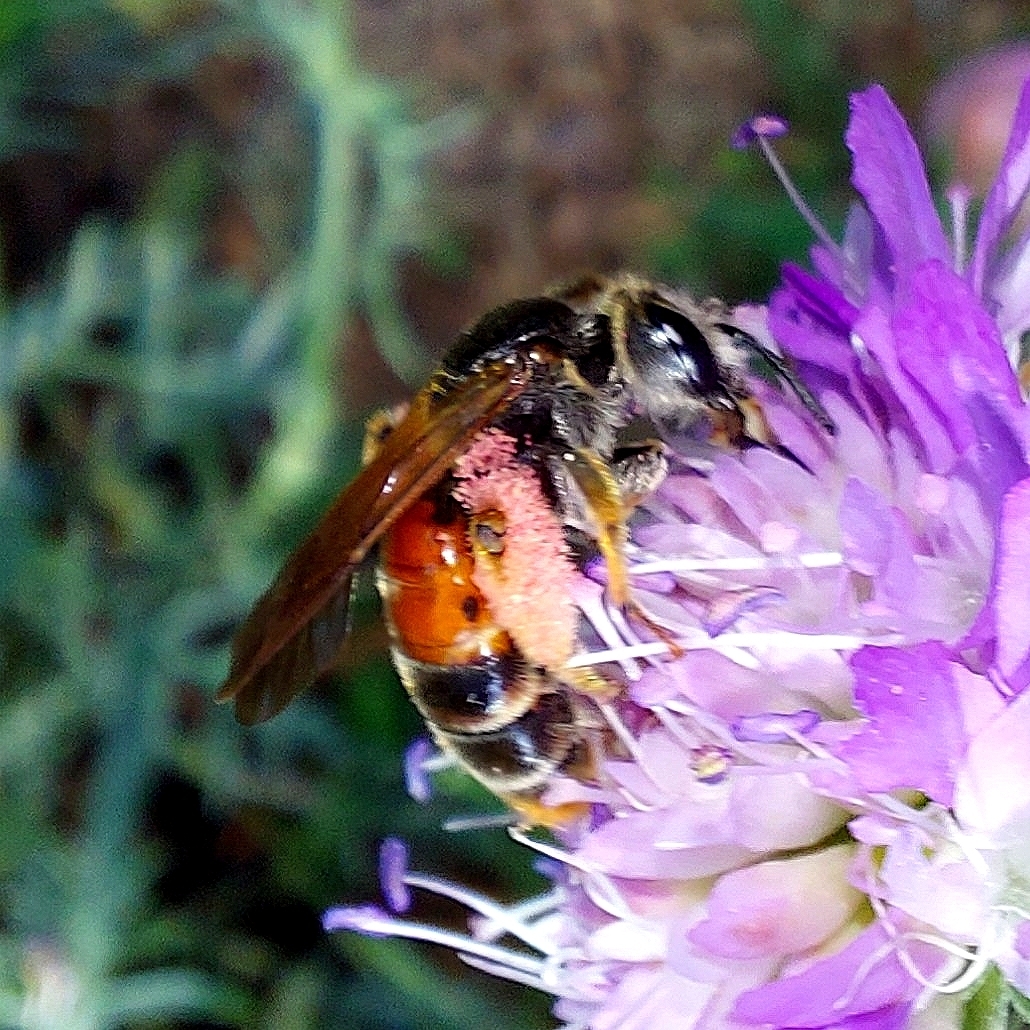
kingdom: Animalia
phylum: Arthropoda
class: Insecta
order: Hymenoptera
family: Andrenidae
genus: Andrena
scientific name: Andrena hattorfiana
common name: Large scabious mining bee
